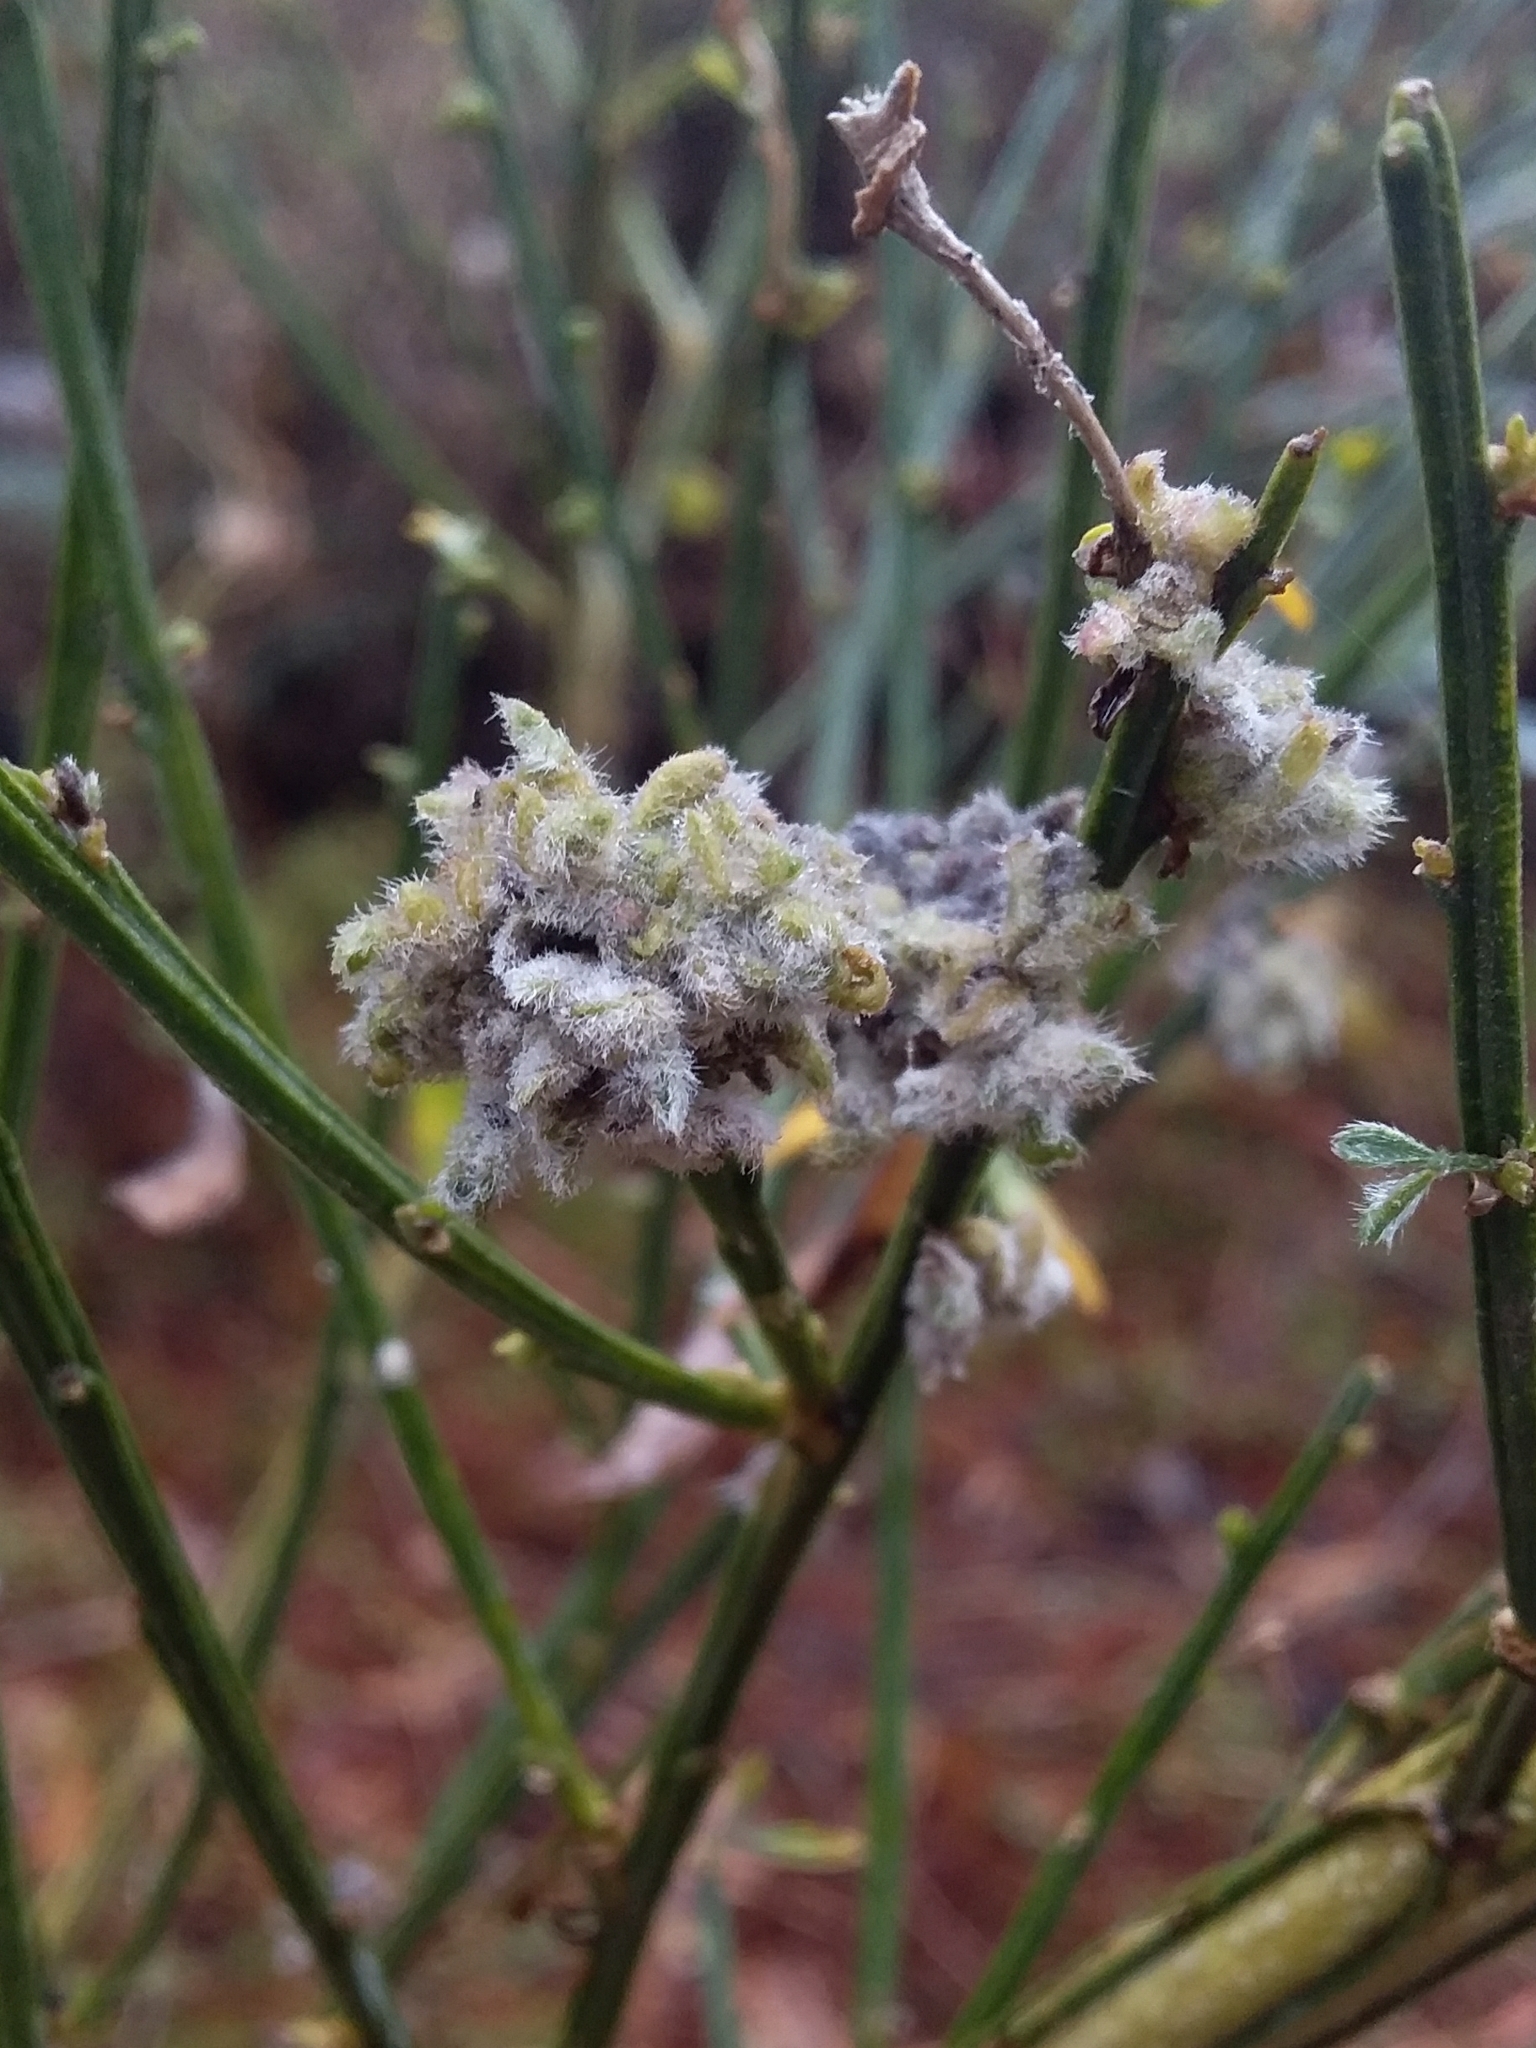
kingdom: Animalia
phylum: Arthropoda
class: Arachnida
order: Trombidiformes
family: Eriophyidae
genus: Aceria
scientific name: Aceria genistae
